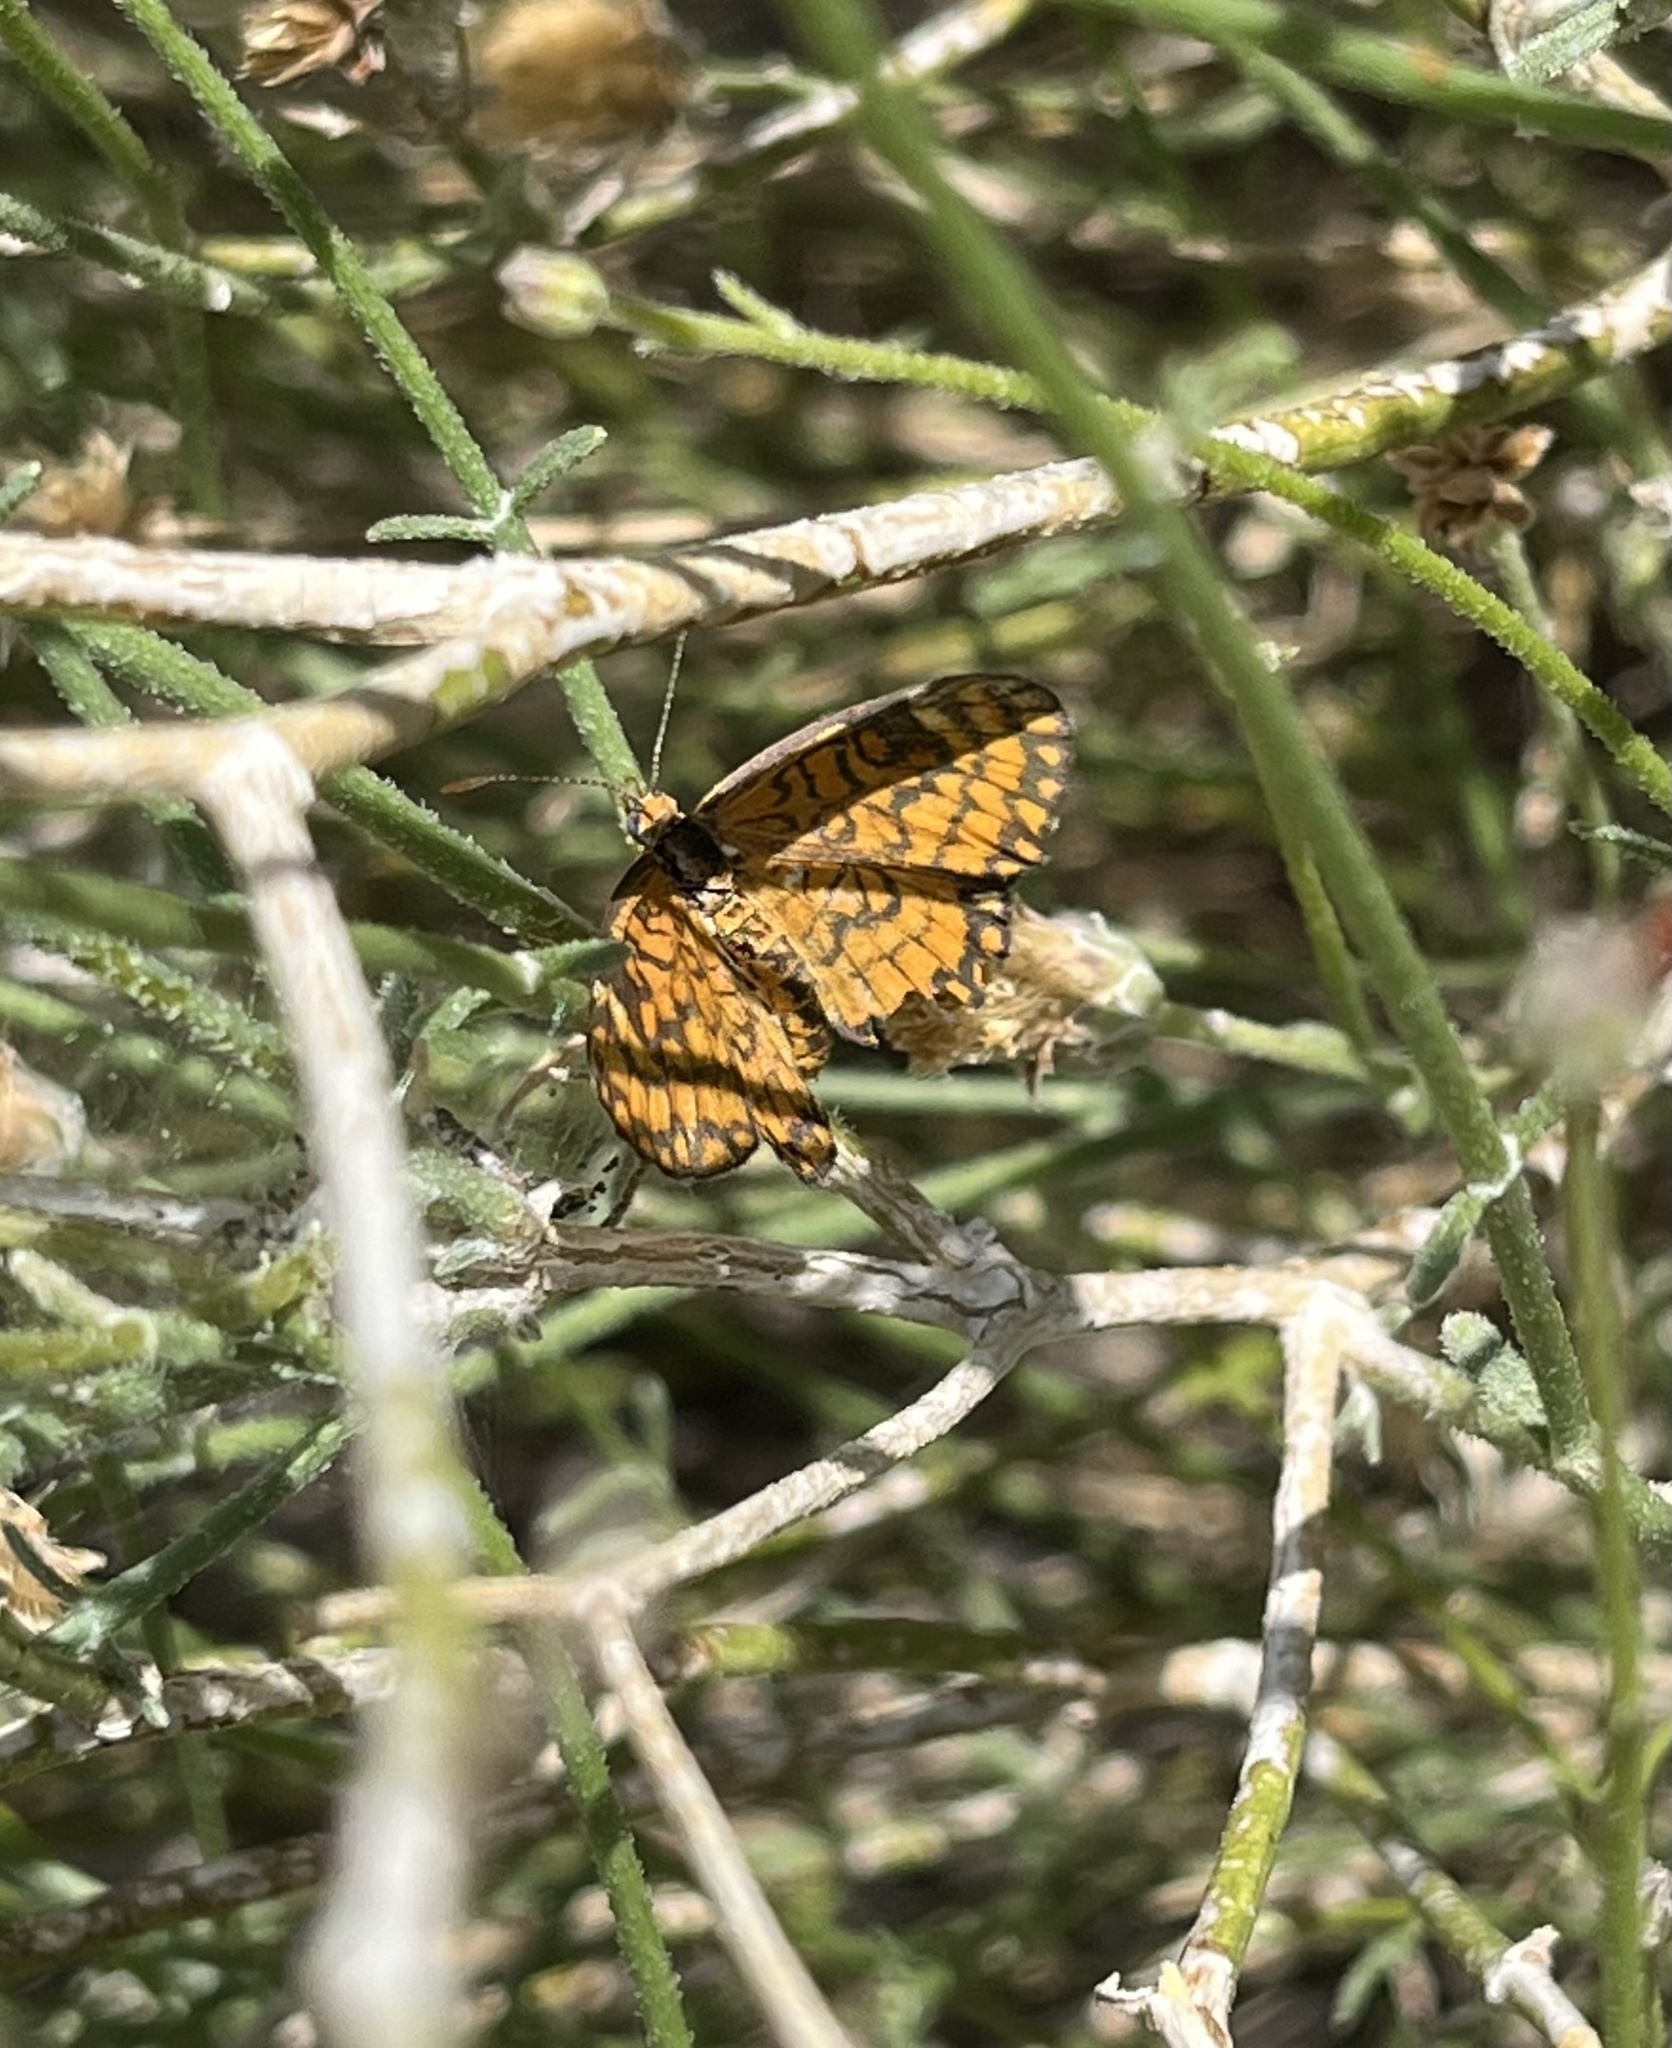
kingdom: Animalia
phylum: Arthropoda
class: Insecta
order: Lepidoptera
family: Nymphalidae
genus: Dymasia
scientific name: Dymasia dymas
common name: Tiny checkerspot
